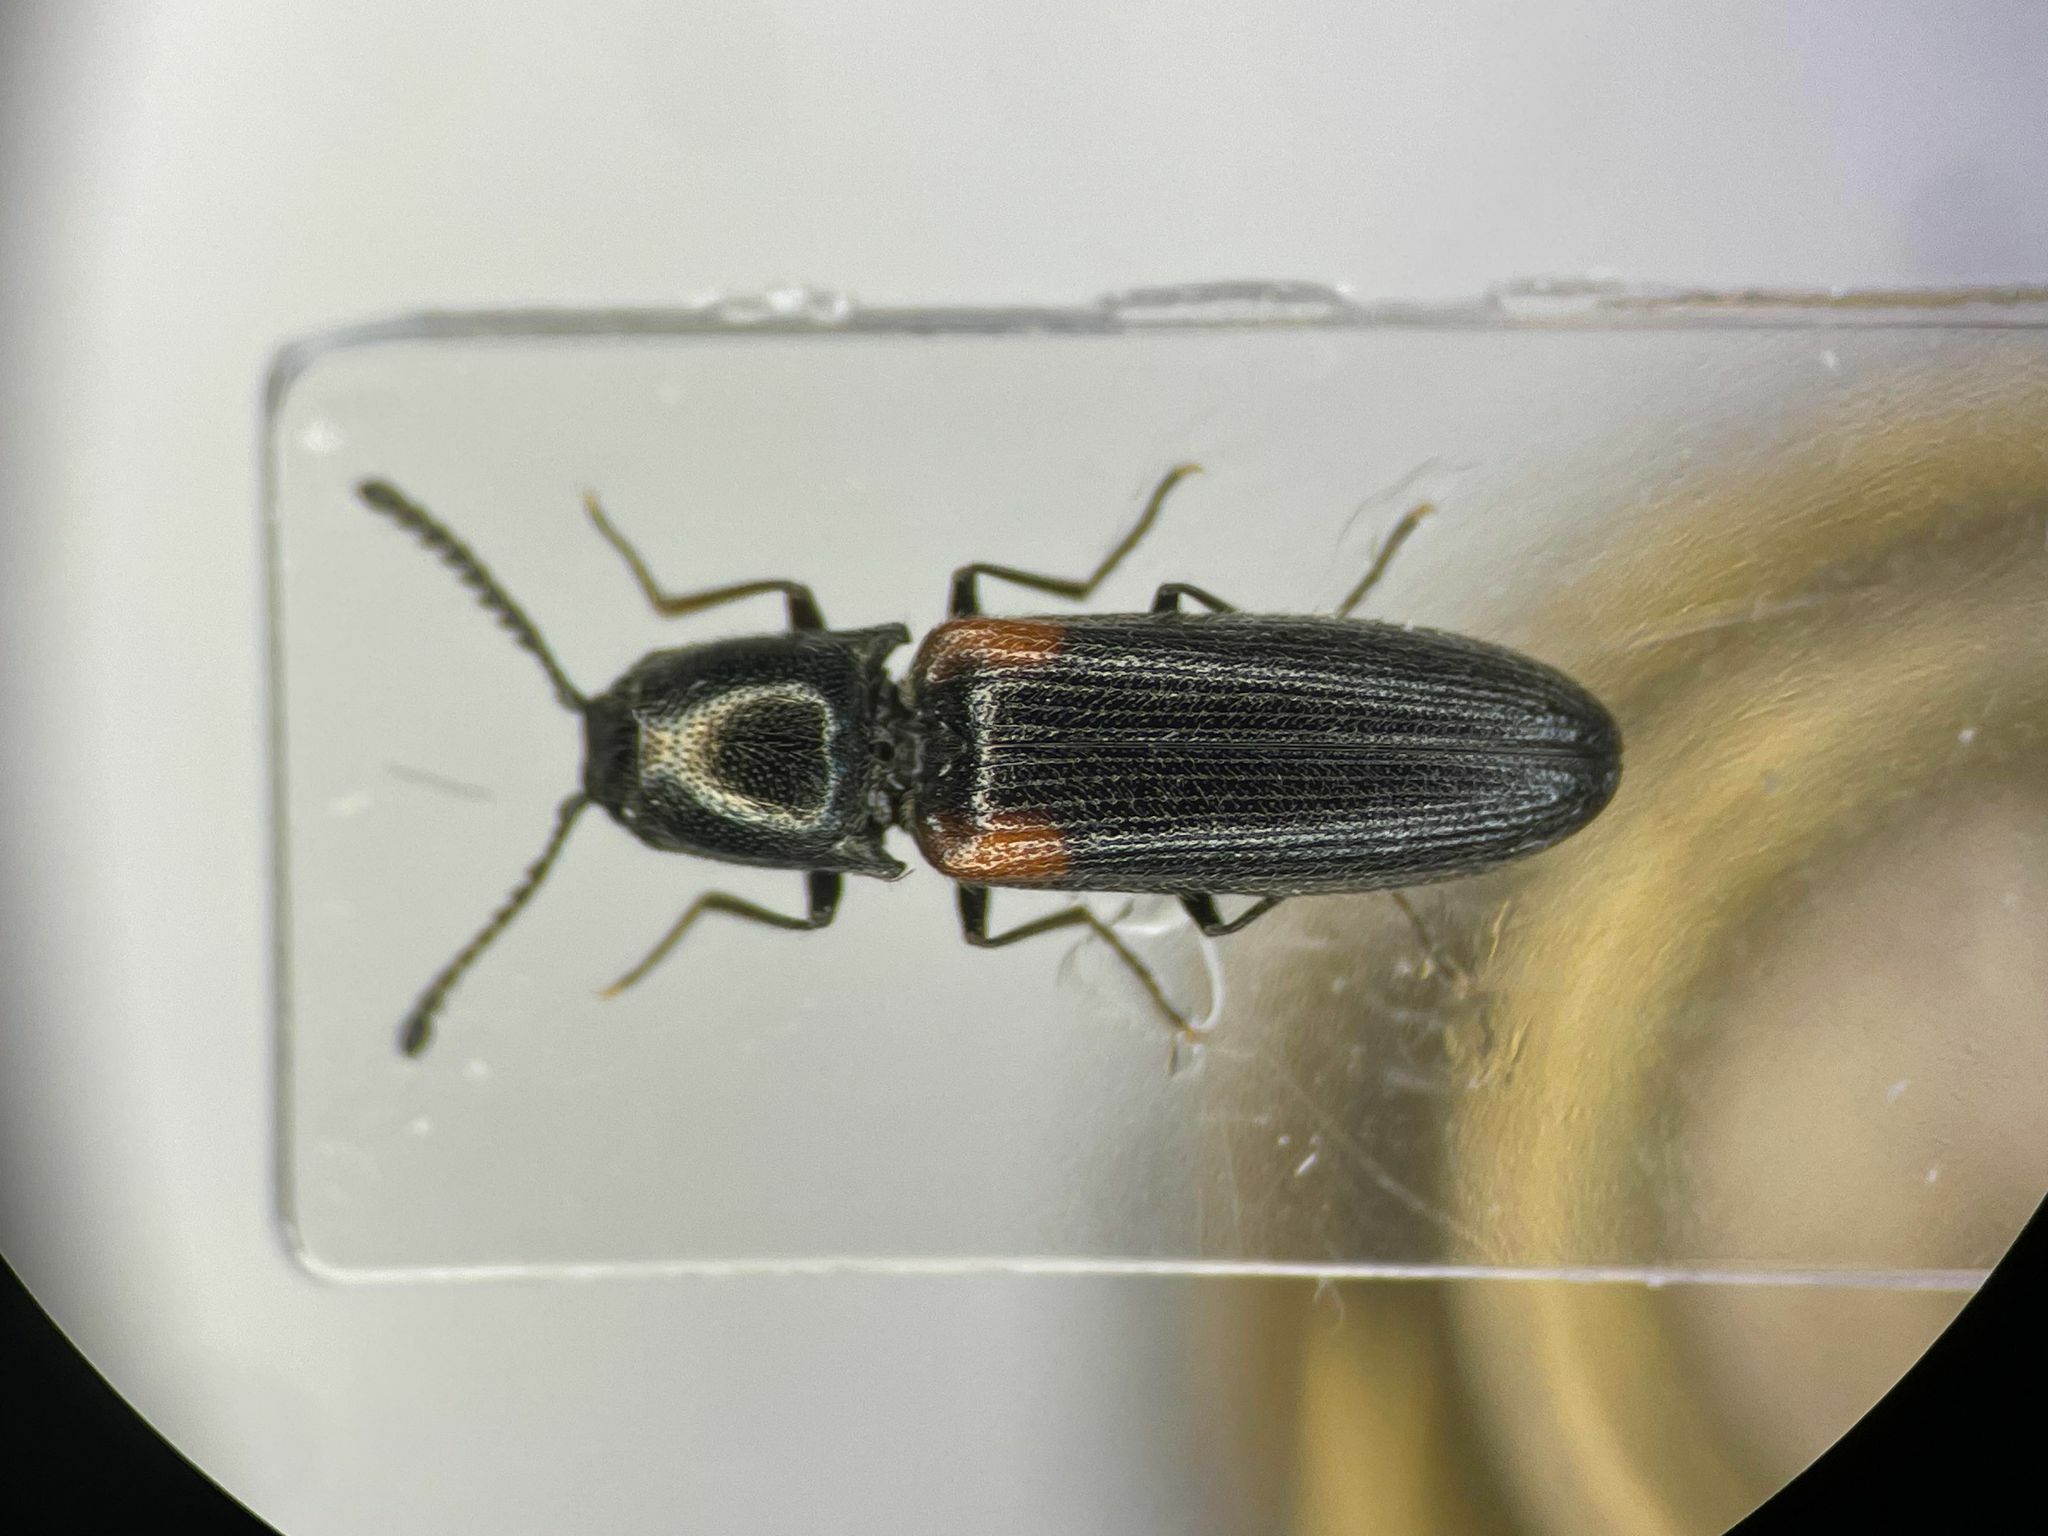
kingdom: Animalia
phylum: Arthropoda
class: Insecta
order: Coleoptera
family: Elateridae
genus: Gambrinus
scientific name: Gambrinus
